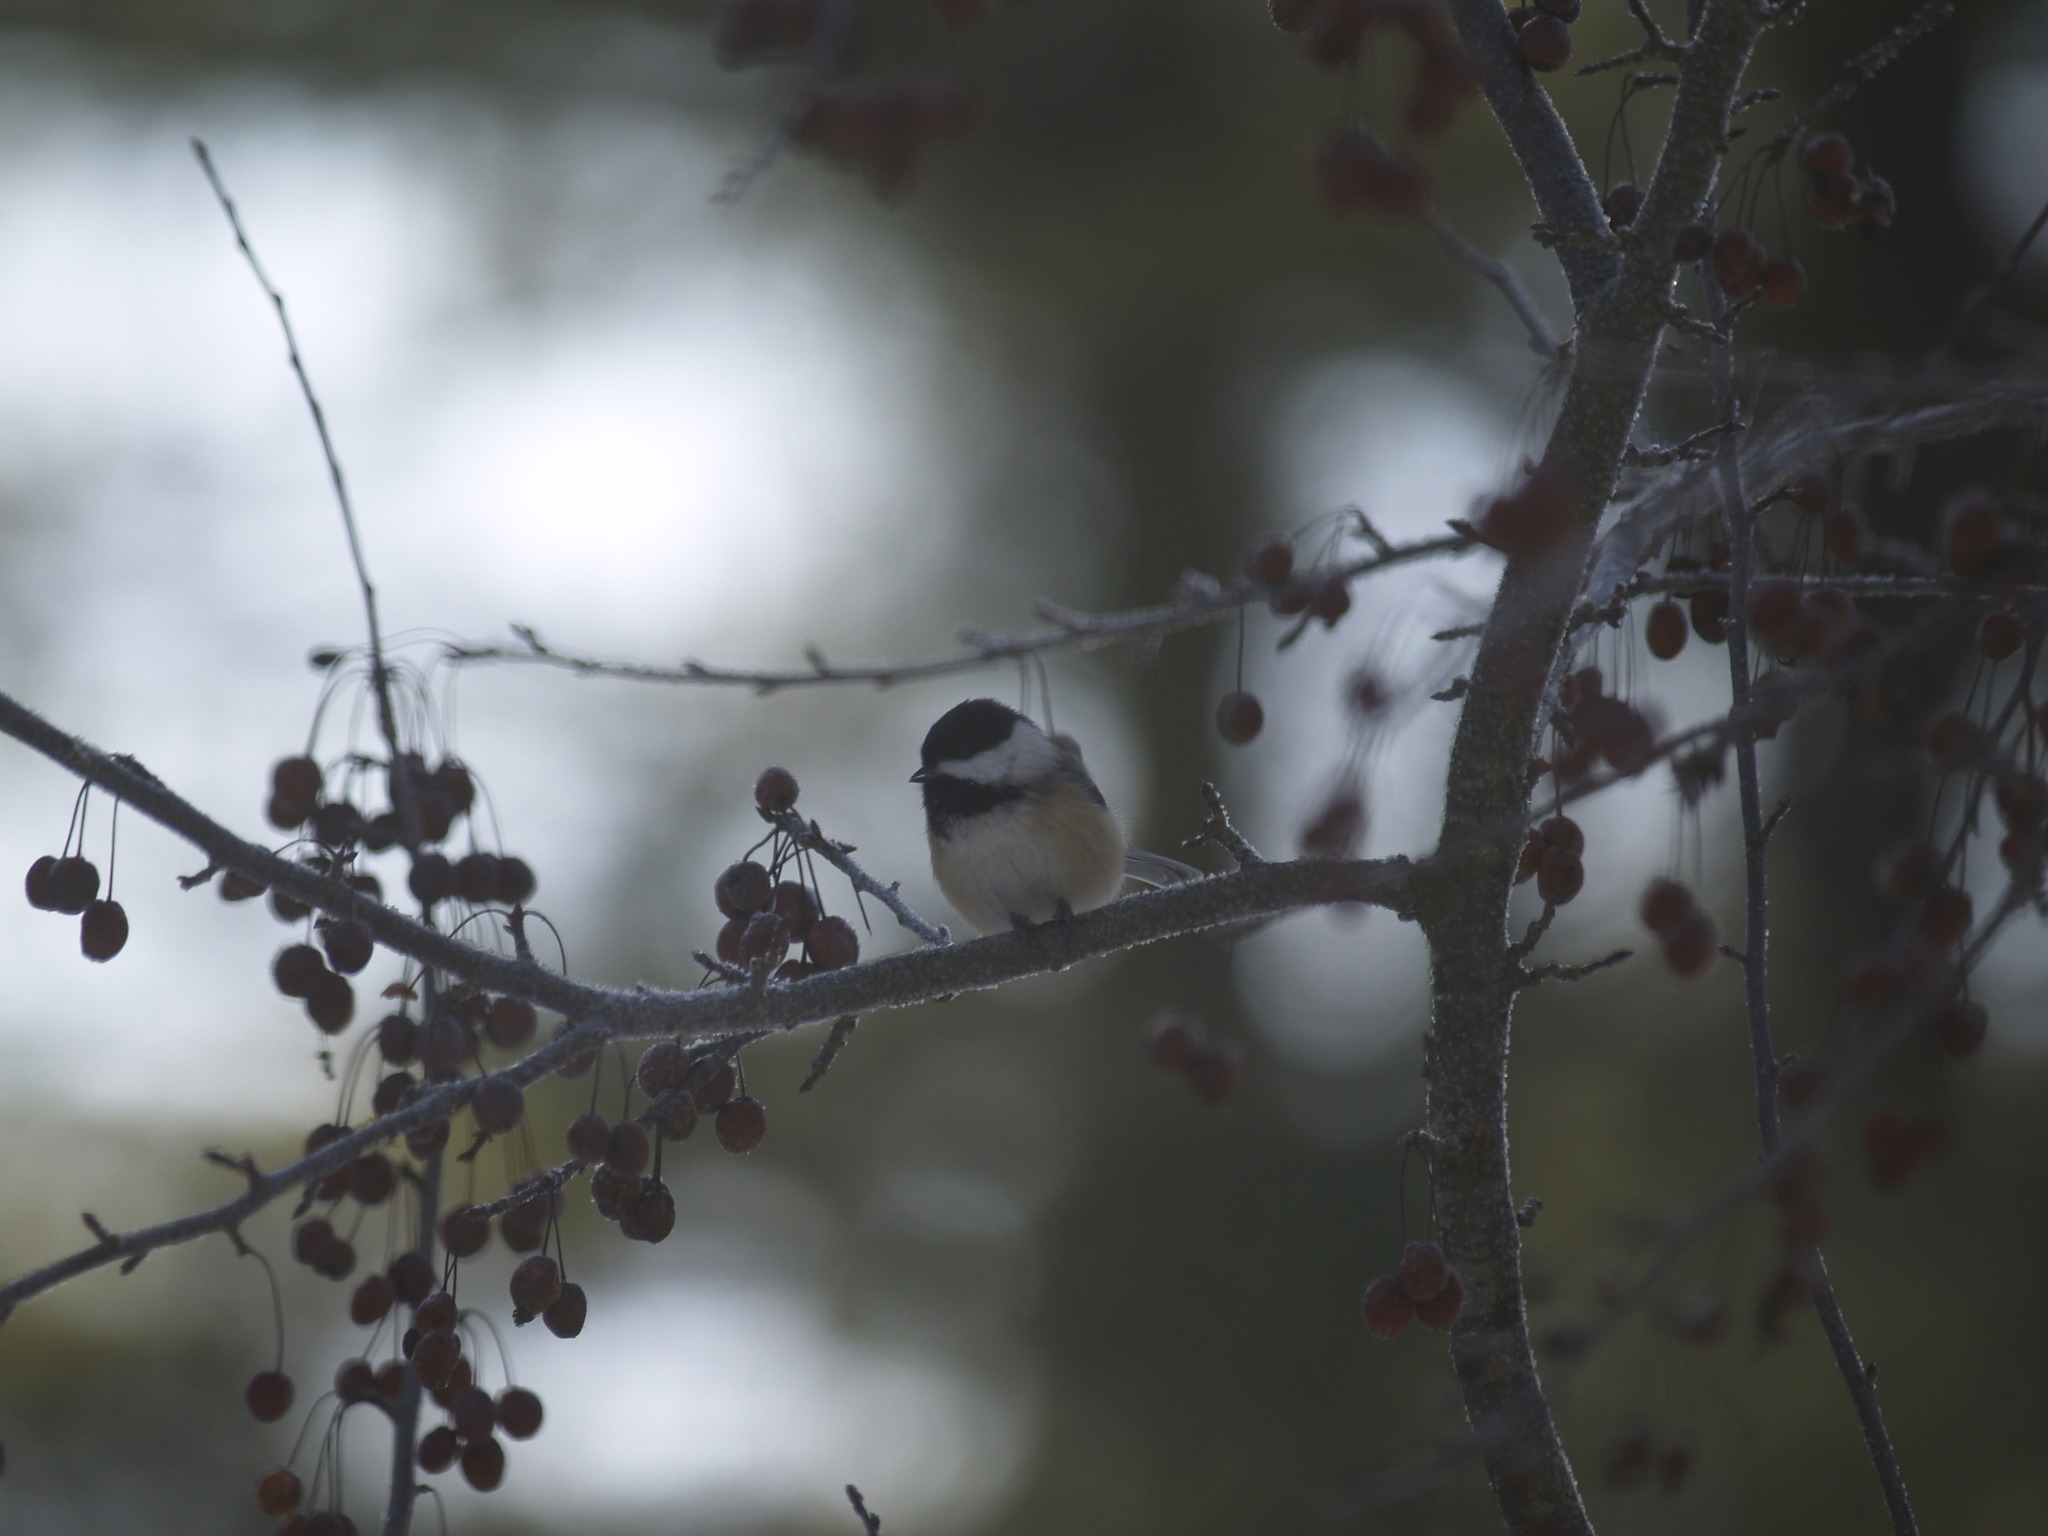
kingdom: Animalia
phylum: Chordata
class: Aves
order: Passeriformes
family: Paridae
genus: Poecile
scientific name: Poecile atricapillus
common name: Black-capped chickadee
